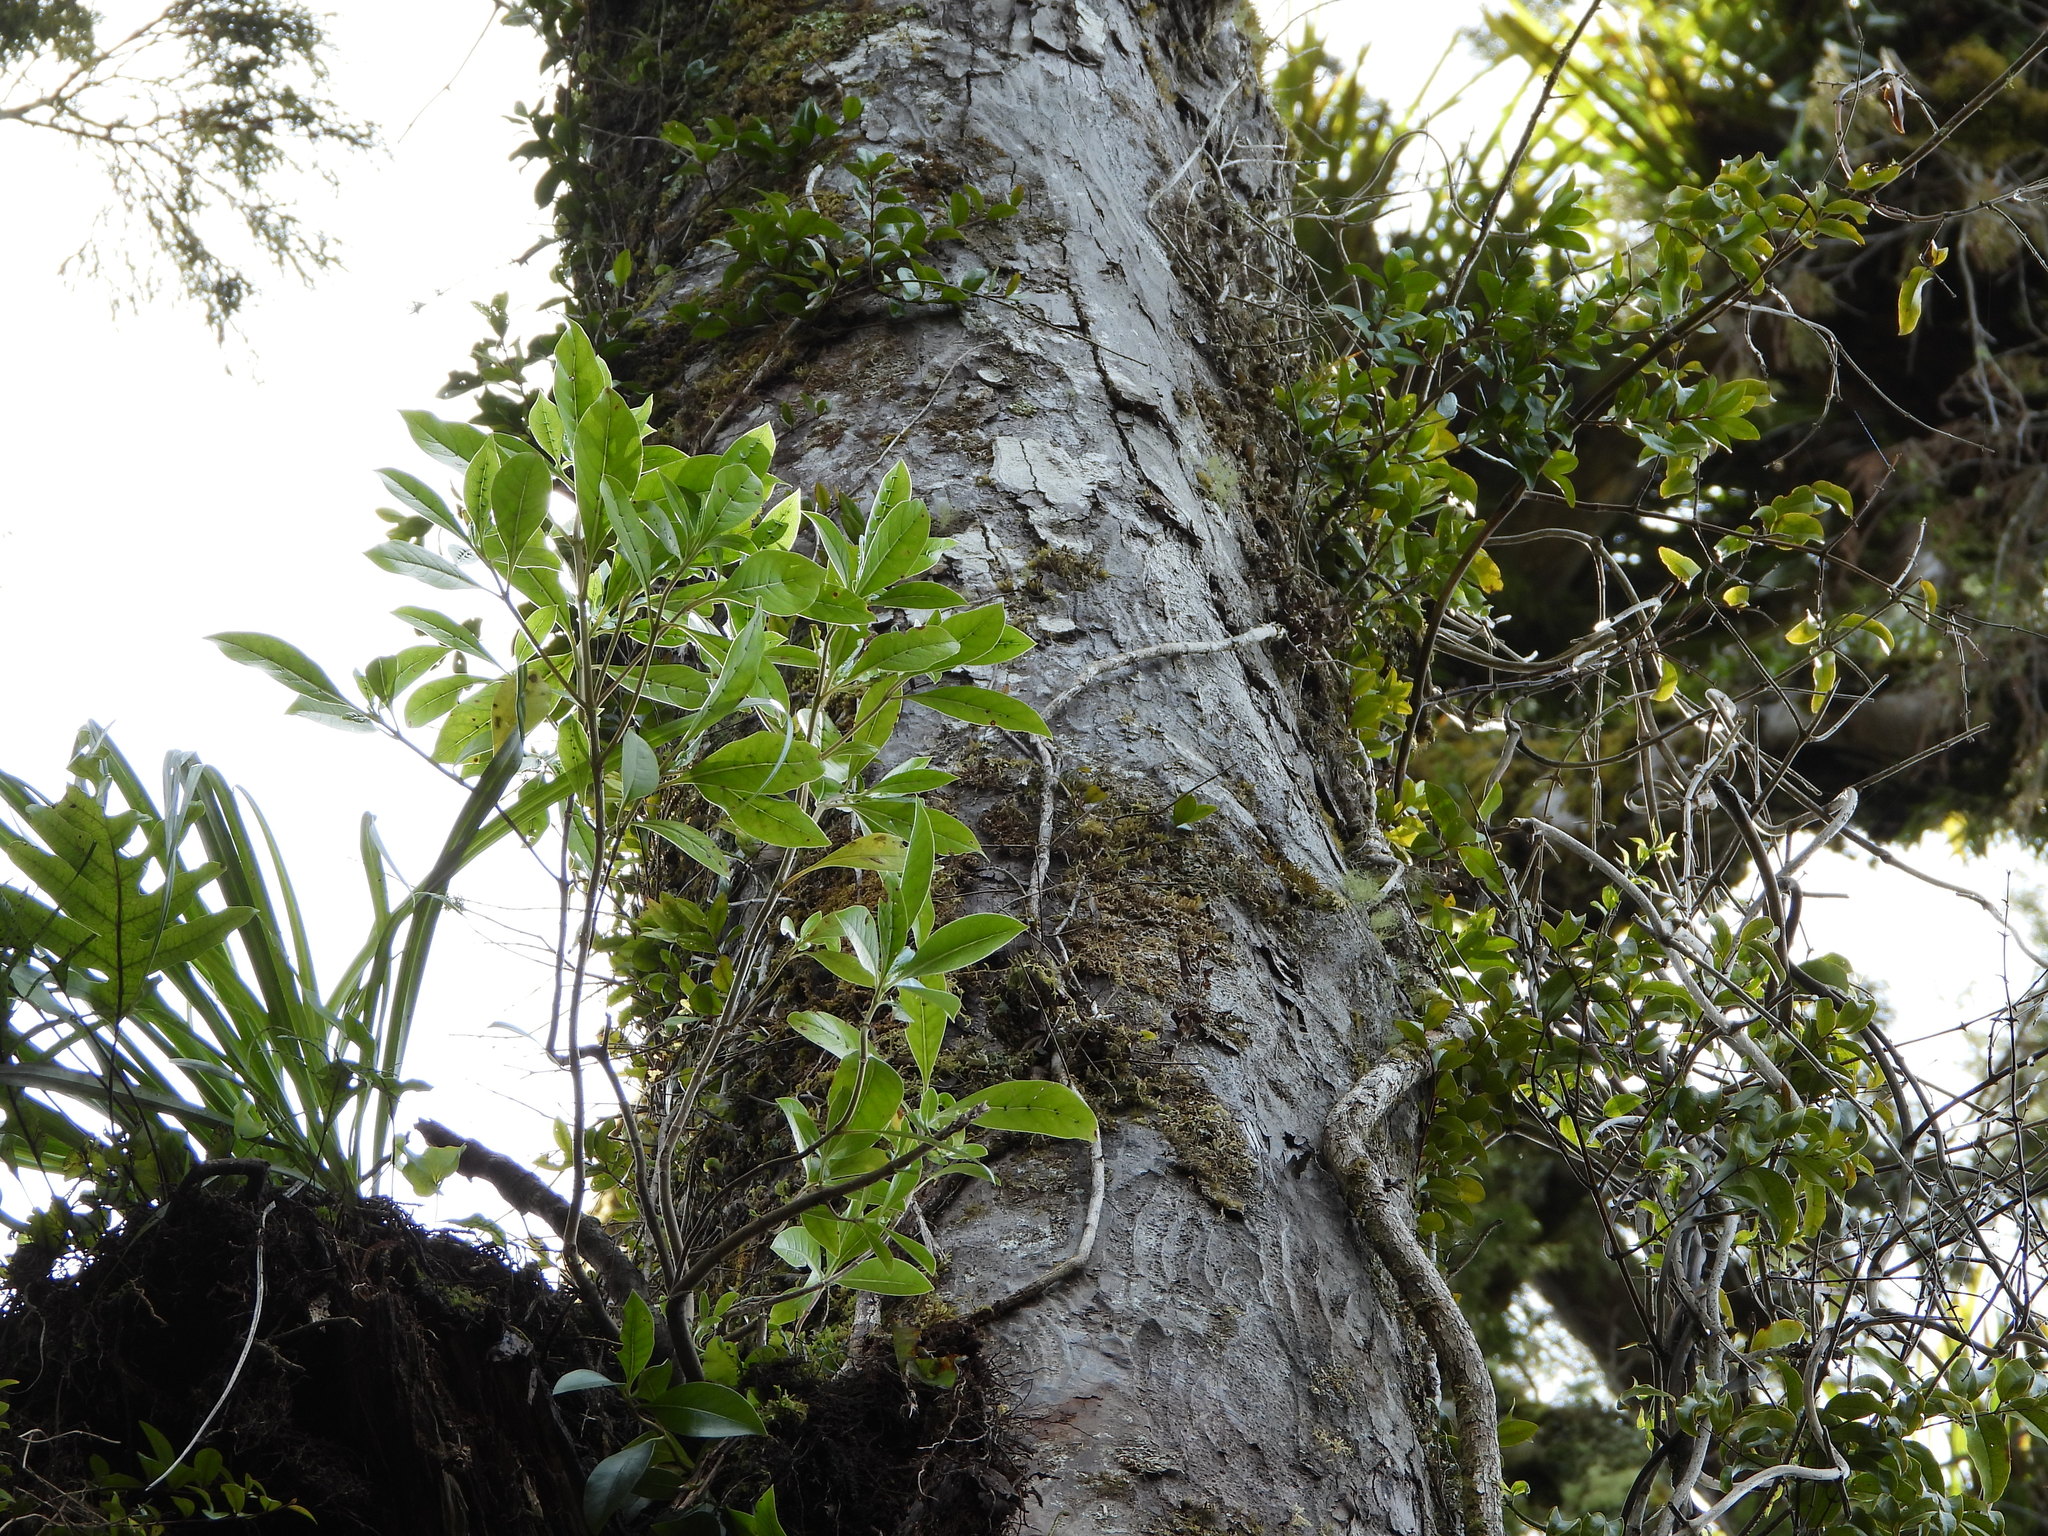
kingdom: Plantae
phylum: Tracheophyta
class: Magnoliopsida
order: Gentianales
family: Rubiaceae
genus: Coprosma
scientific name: Coprosma lucida
